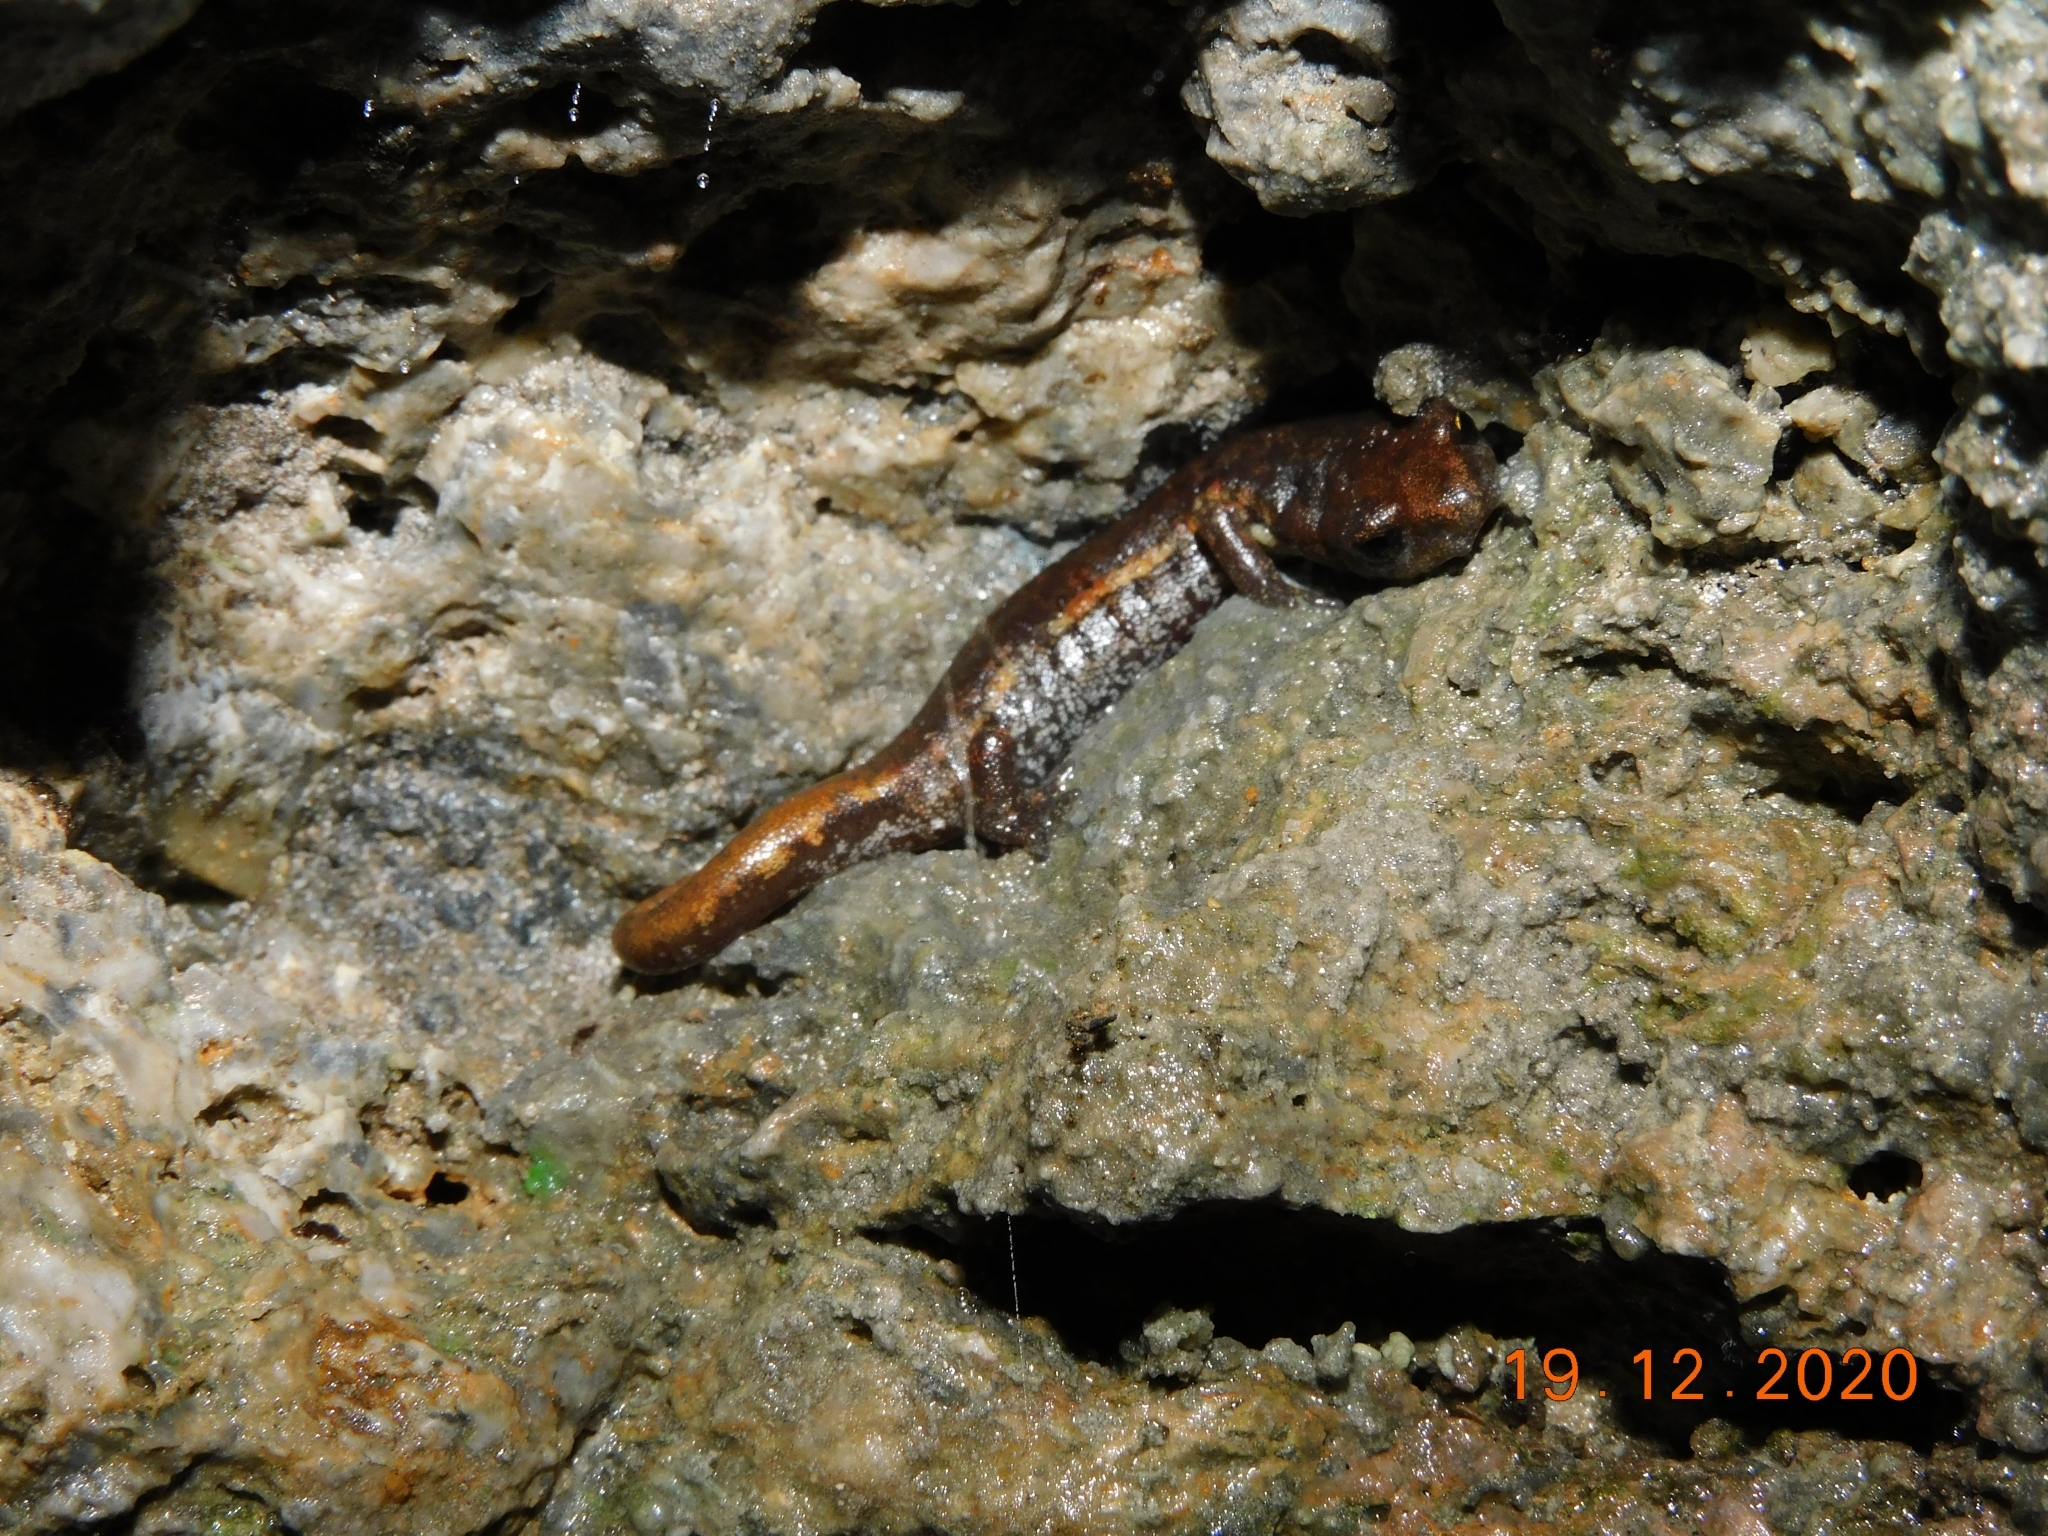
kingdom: Animalia
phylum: Chordata
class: Amphibia
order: Caudata
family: Plethodontidae
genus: Speleomantes
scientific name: Speleomantes ambrosii
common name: Ambrosi's cave salamander
